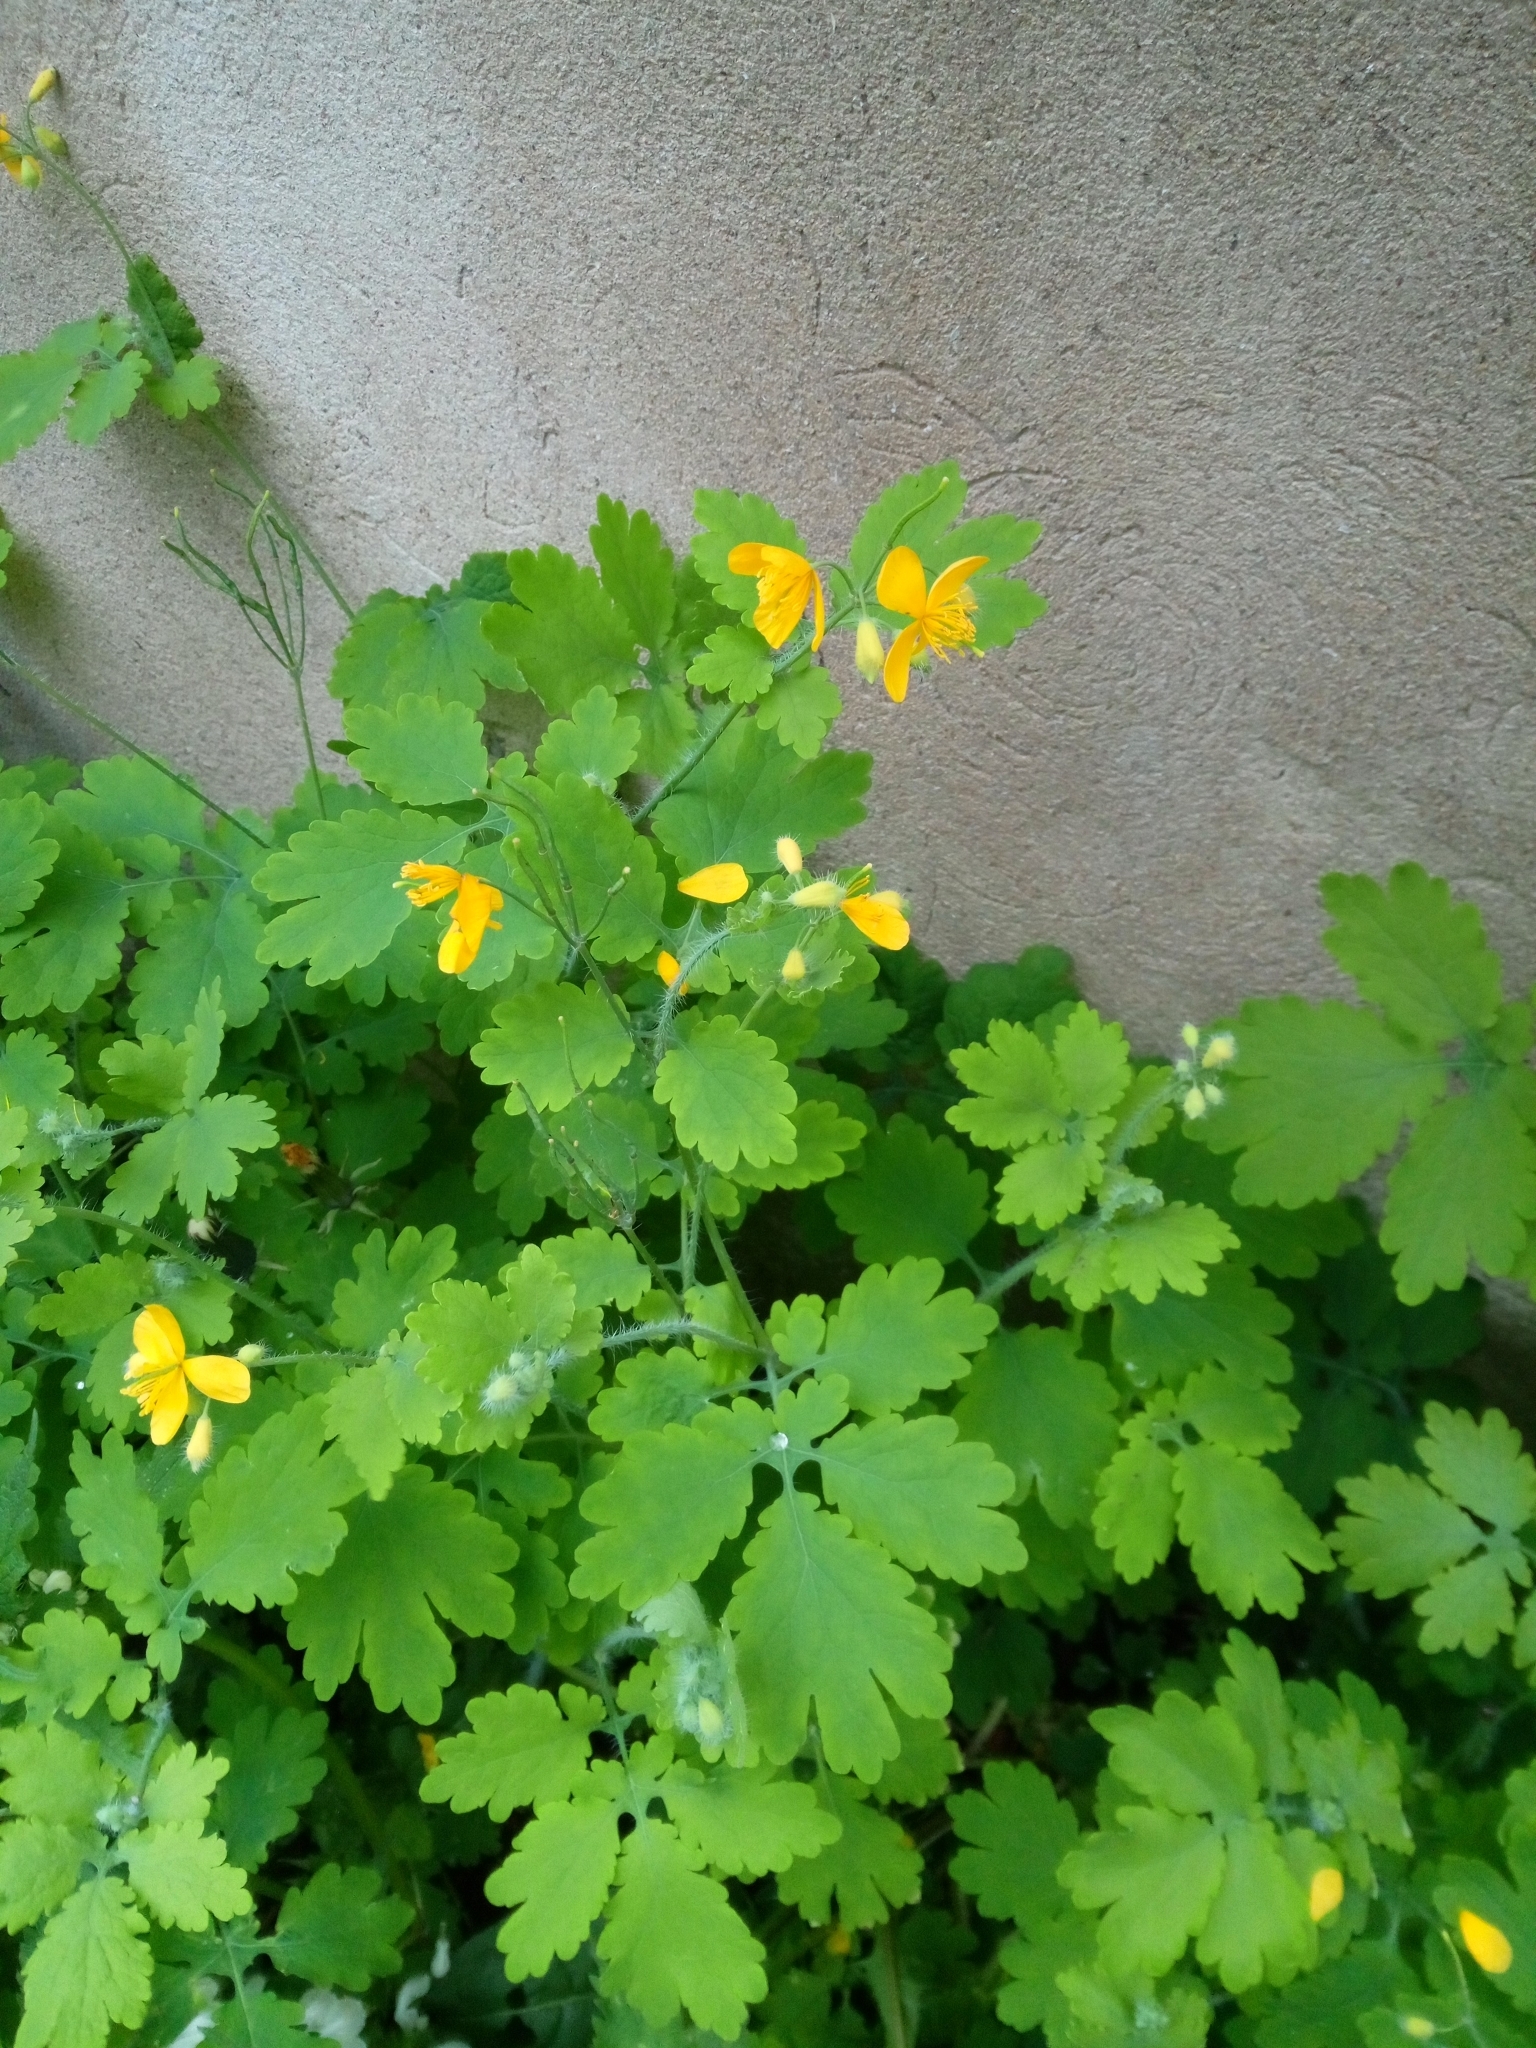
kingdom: Plantae
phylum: Tracheophyta
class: Magnoliopsida
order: Ranunculales
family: Papaveraceae
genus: Chelidonium
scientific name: Chelidonium majus
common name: Greater celandine
